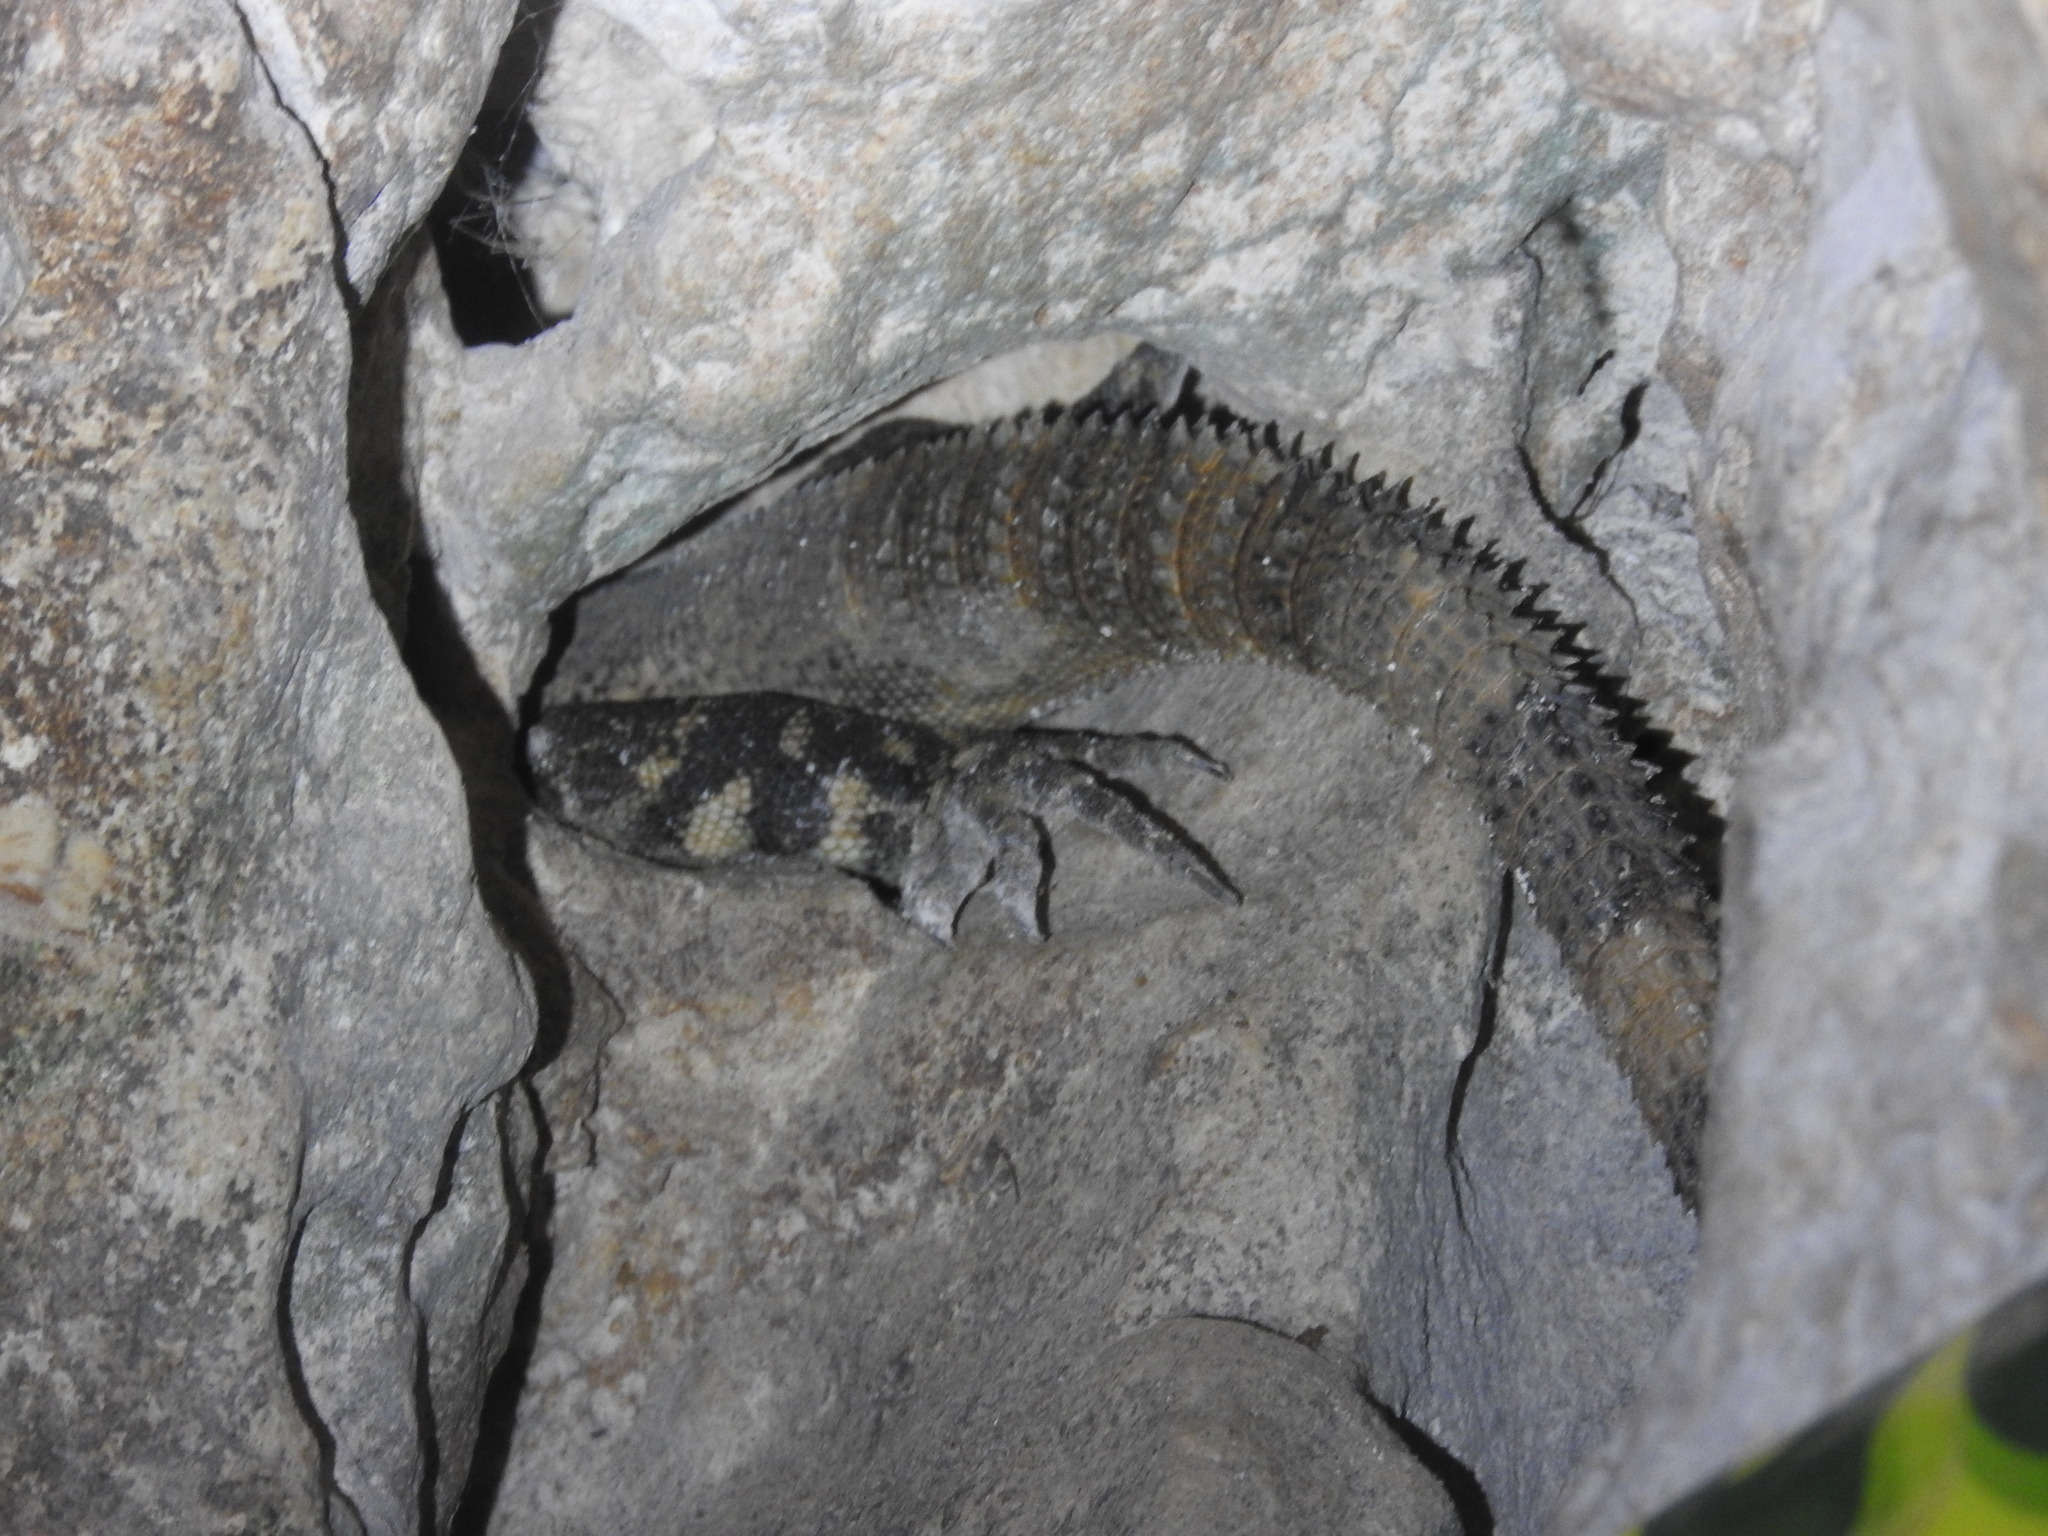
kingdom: Animalia
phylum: Chordata
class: Squamata
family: Iguanidae
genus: Ctenosaura
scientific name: Ctenosaura similis
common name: Black spiny-tailed iguana
